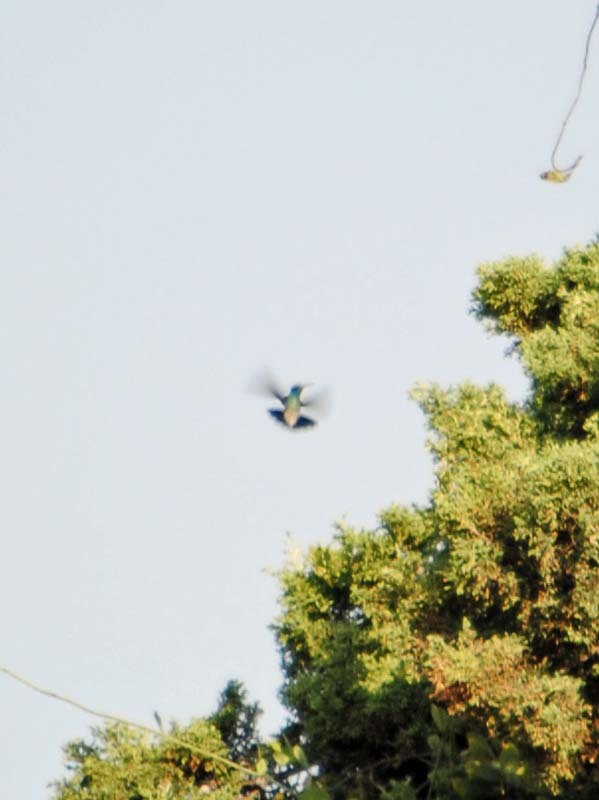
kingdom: Animalia
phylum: Chordata
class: Aves
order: Apodiformes
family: Trochilidae
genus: Cynanthus
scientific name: Cynanthus latirostris
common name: Broad-billed hummingbird
